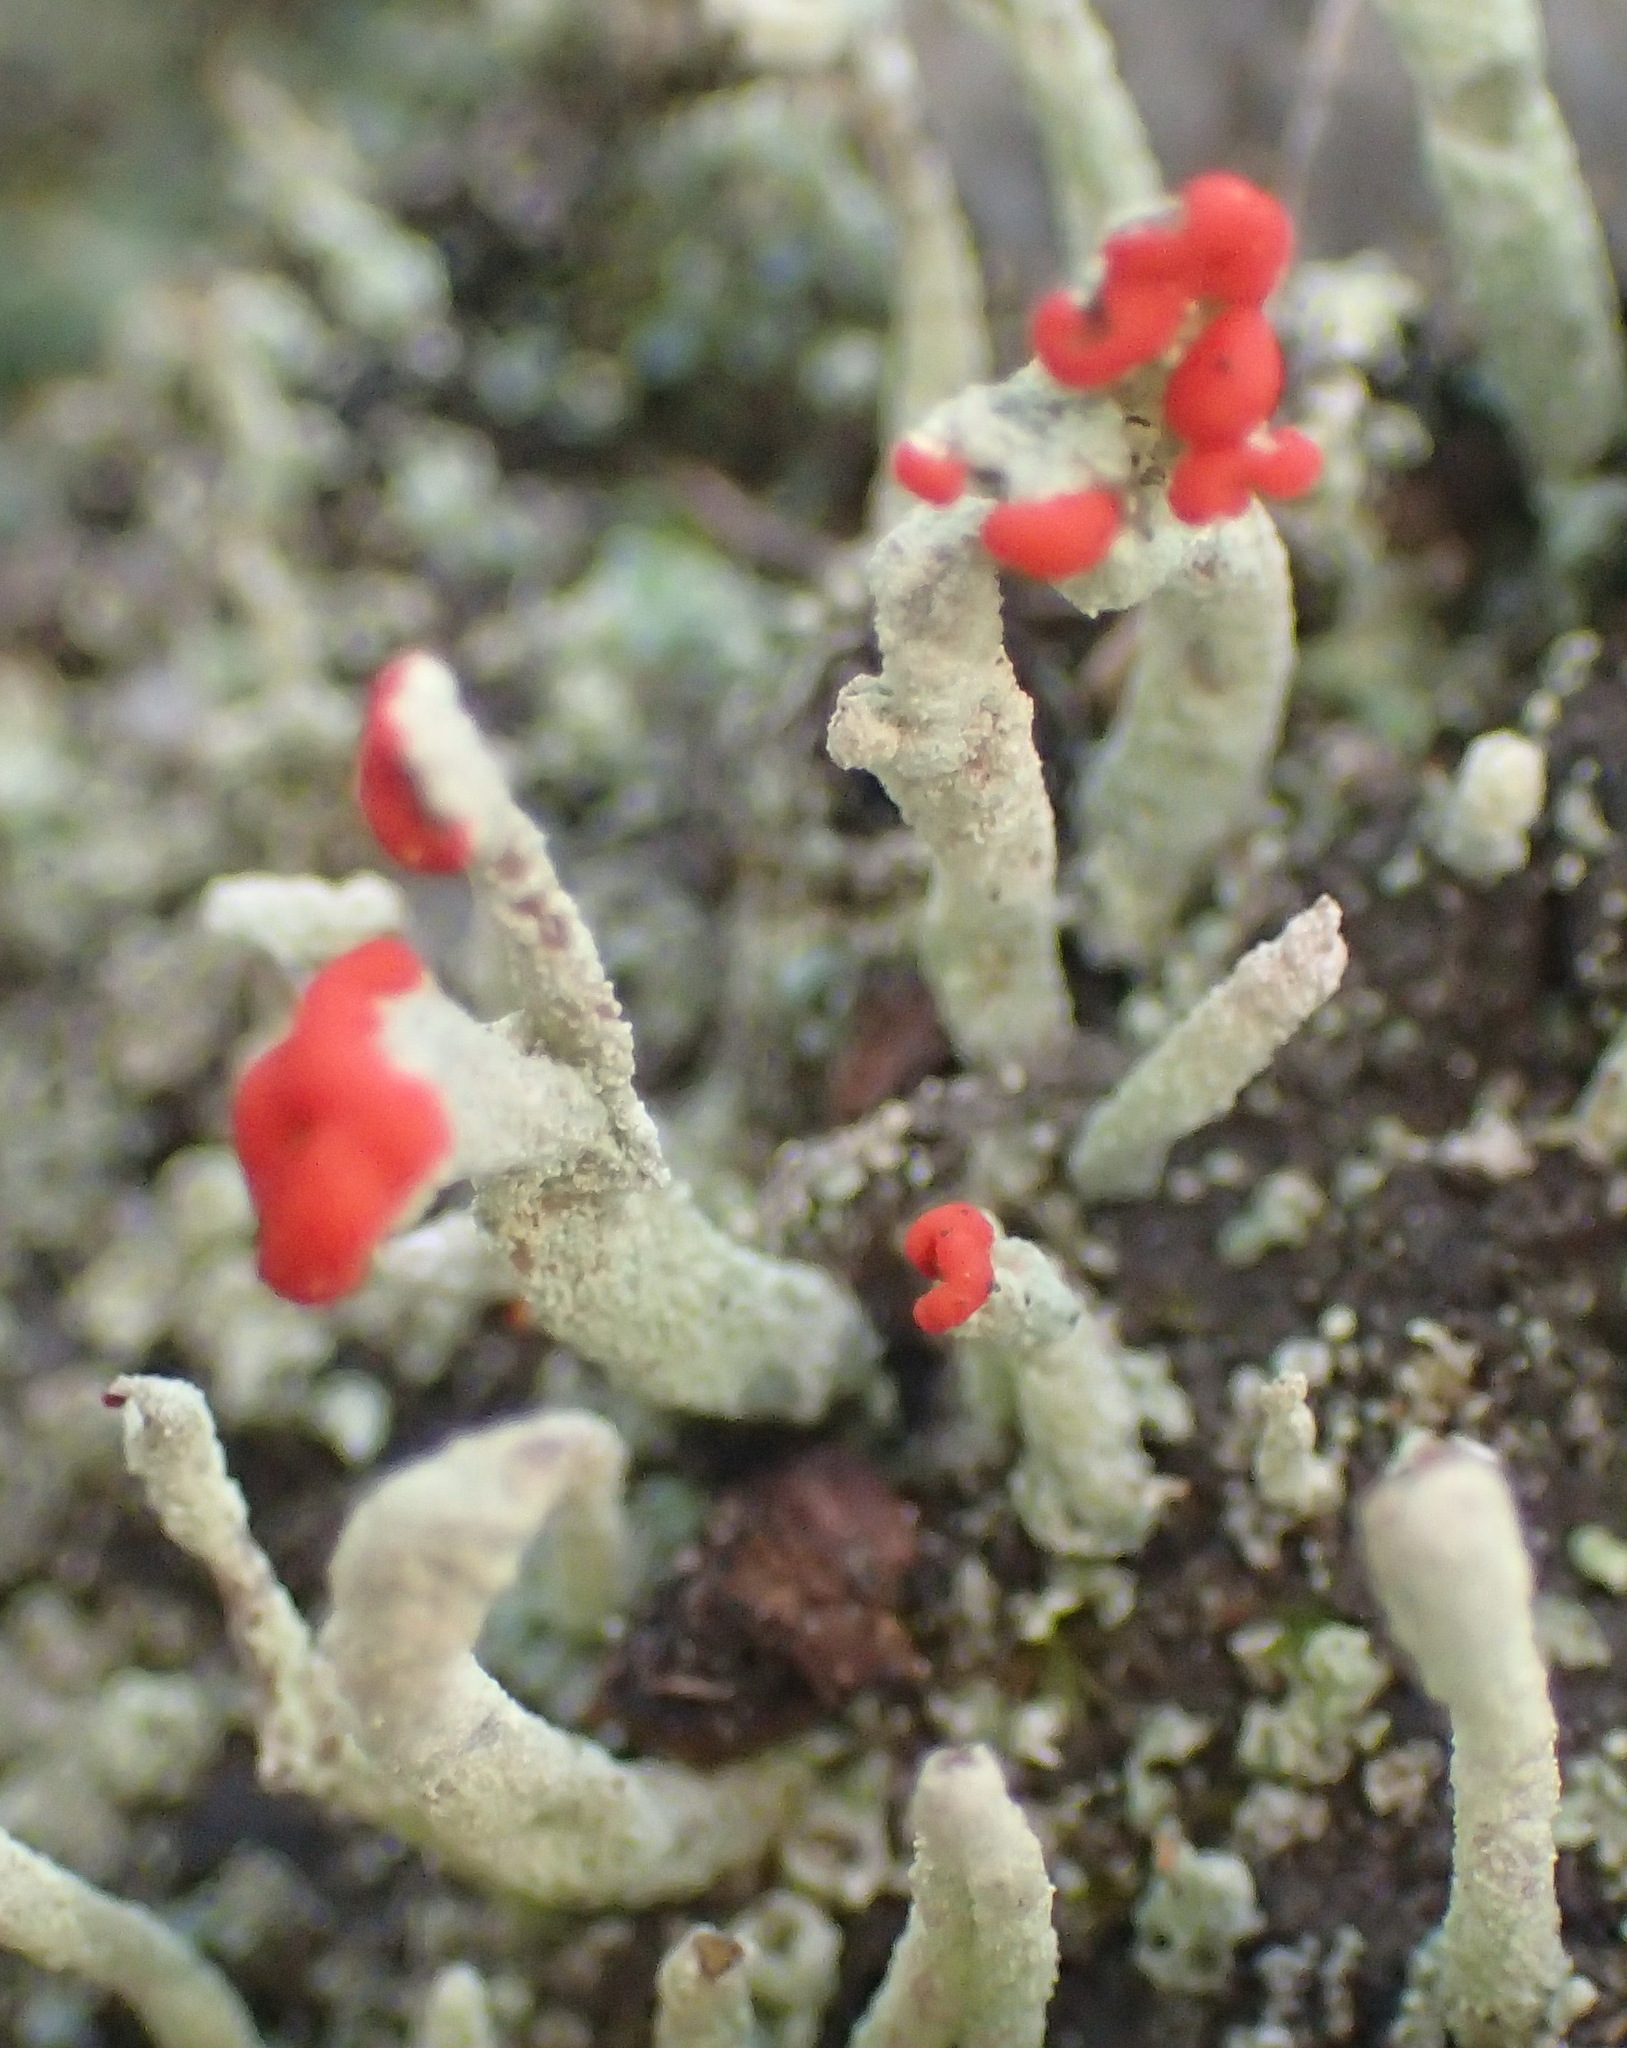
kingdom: Fungi
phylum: Ascomycota
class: Lecanoromycetes
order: Lecanorales
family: Cladoniaceae
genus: Cladonia
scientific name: Cladonia macilenta
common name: Lipstick powderhorn
